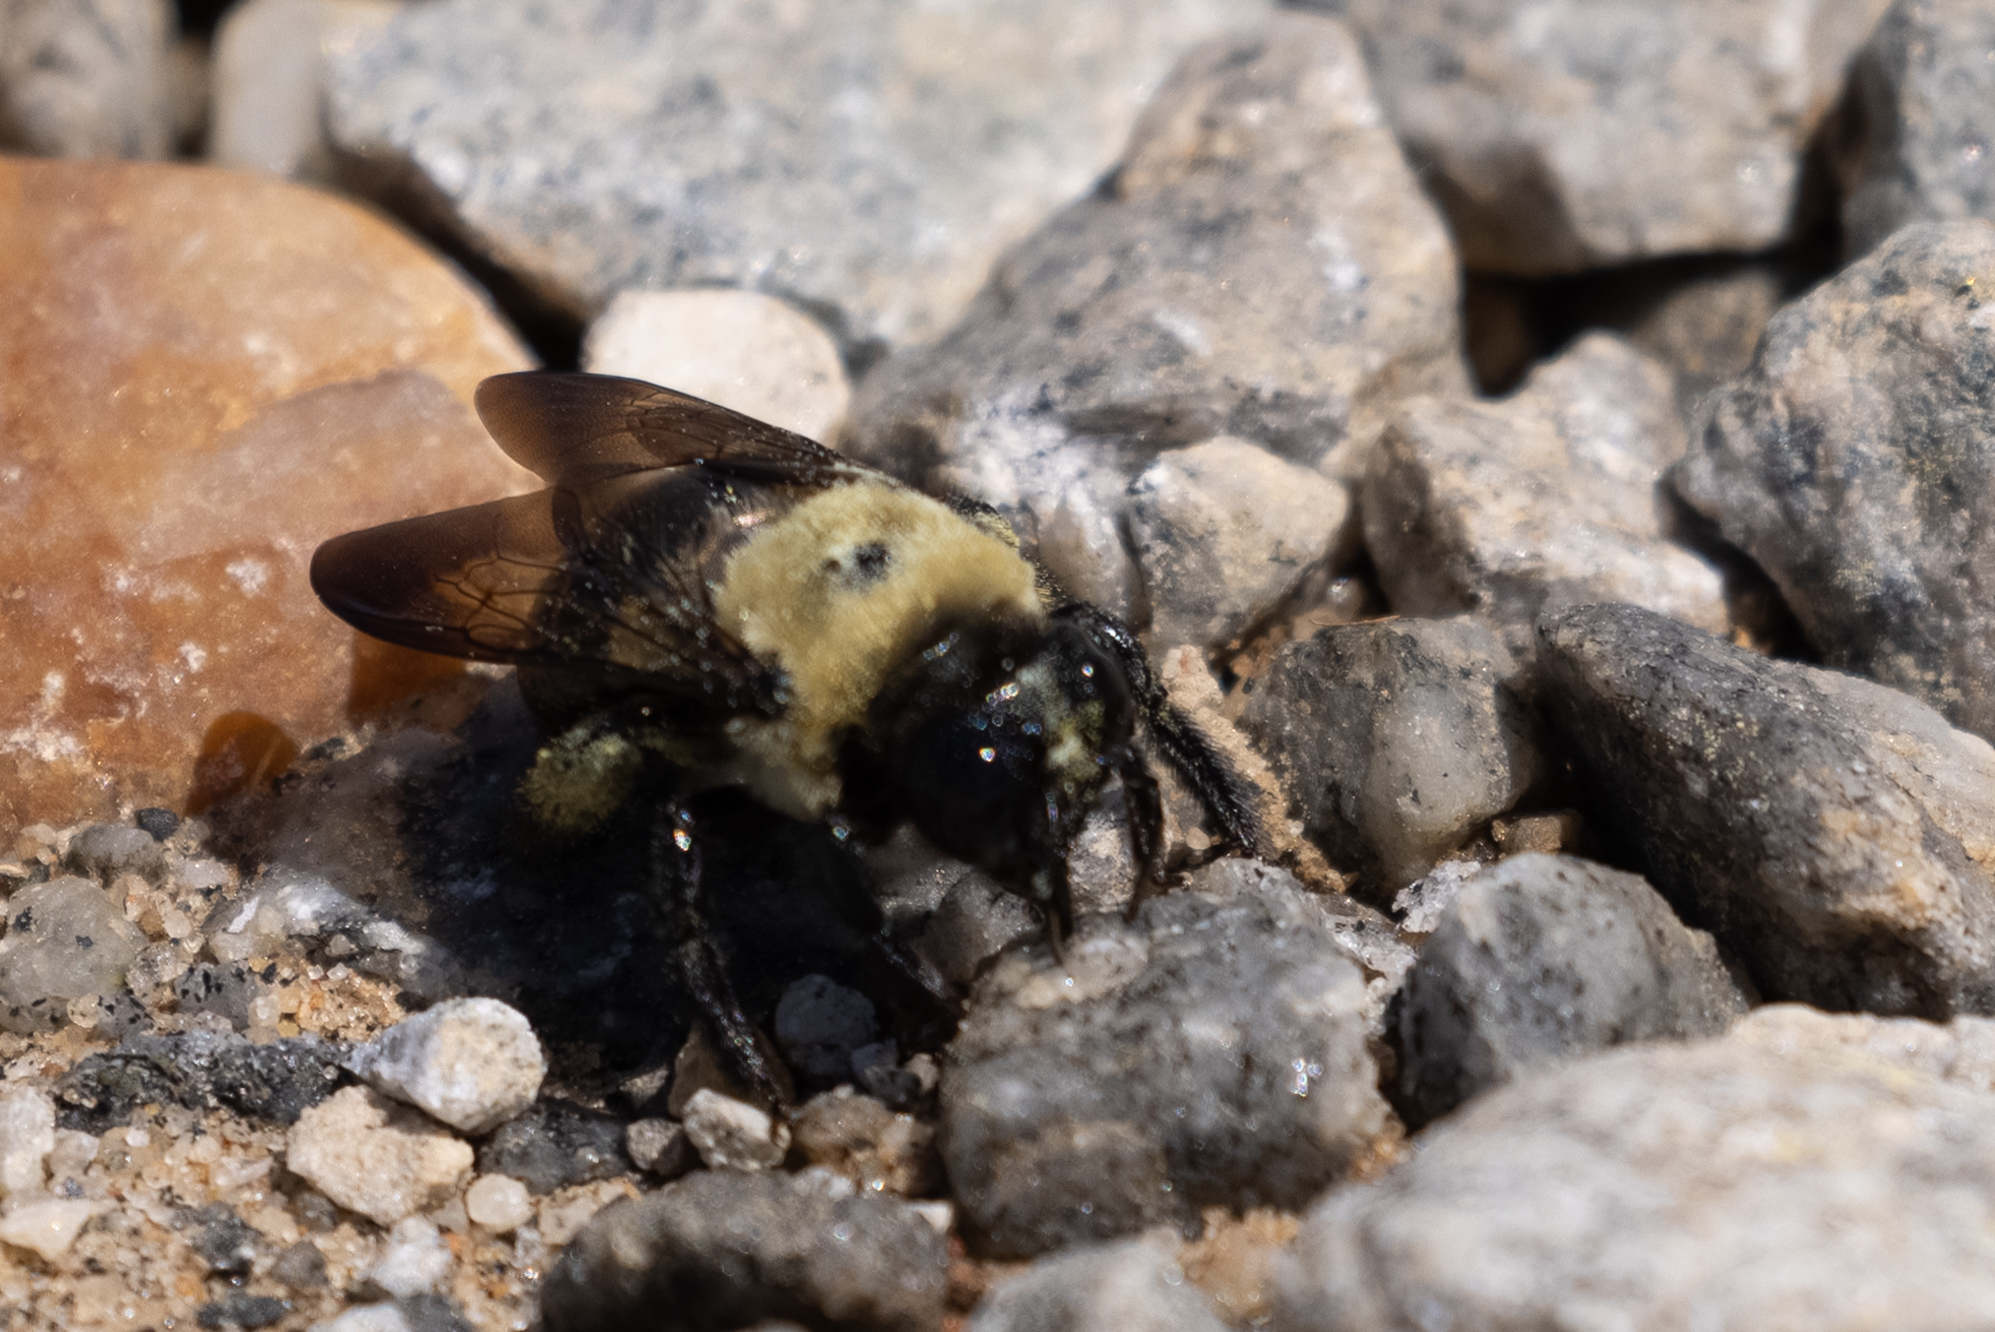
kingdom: Animalia
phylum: Arthropoda
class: Insecta
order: Hymenoptera
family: Apidae
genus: Xylocopa
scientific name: Xylocopa virginica
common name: Carpenter bee
